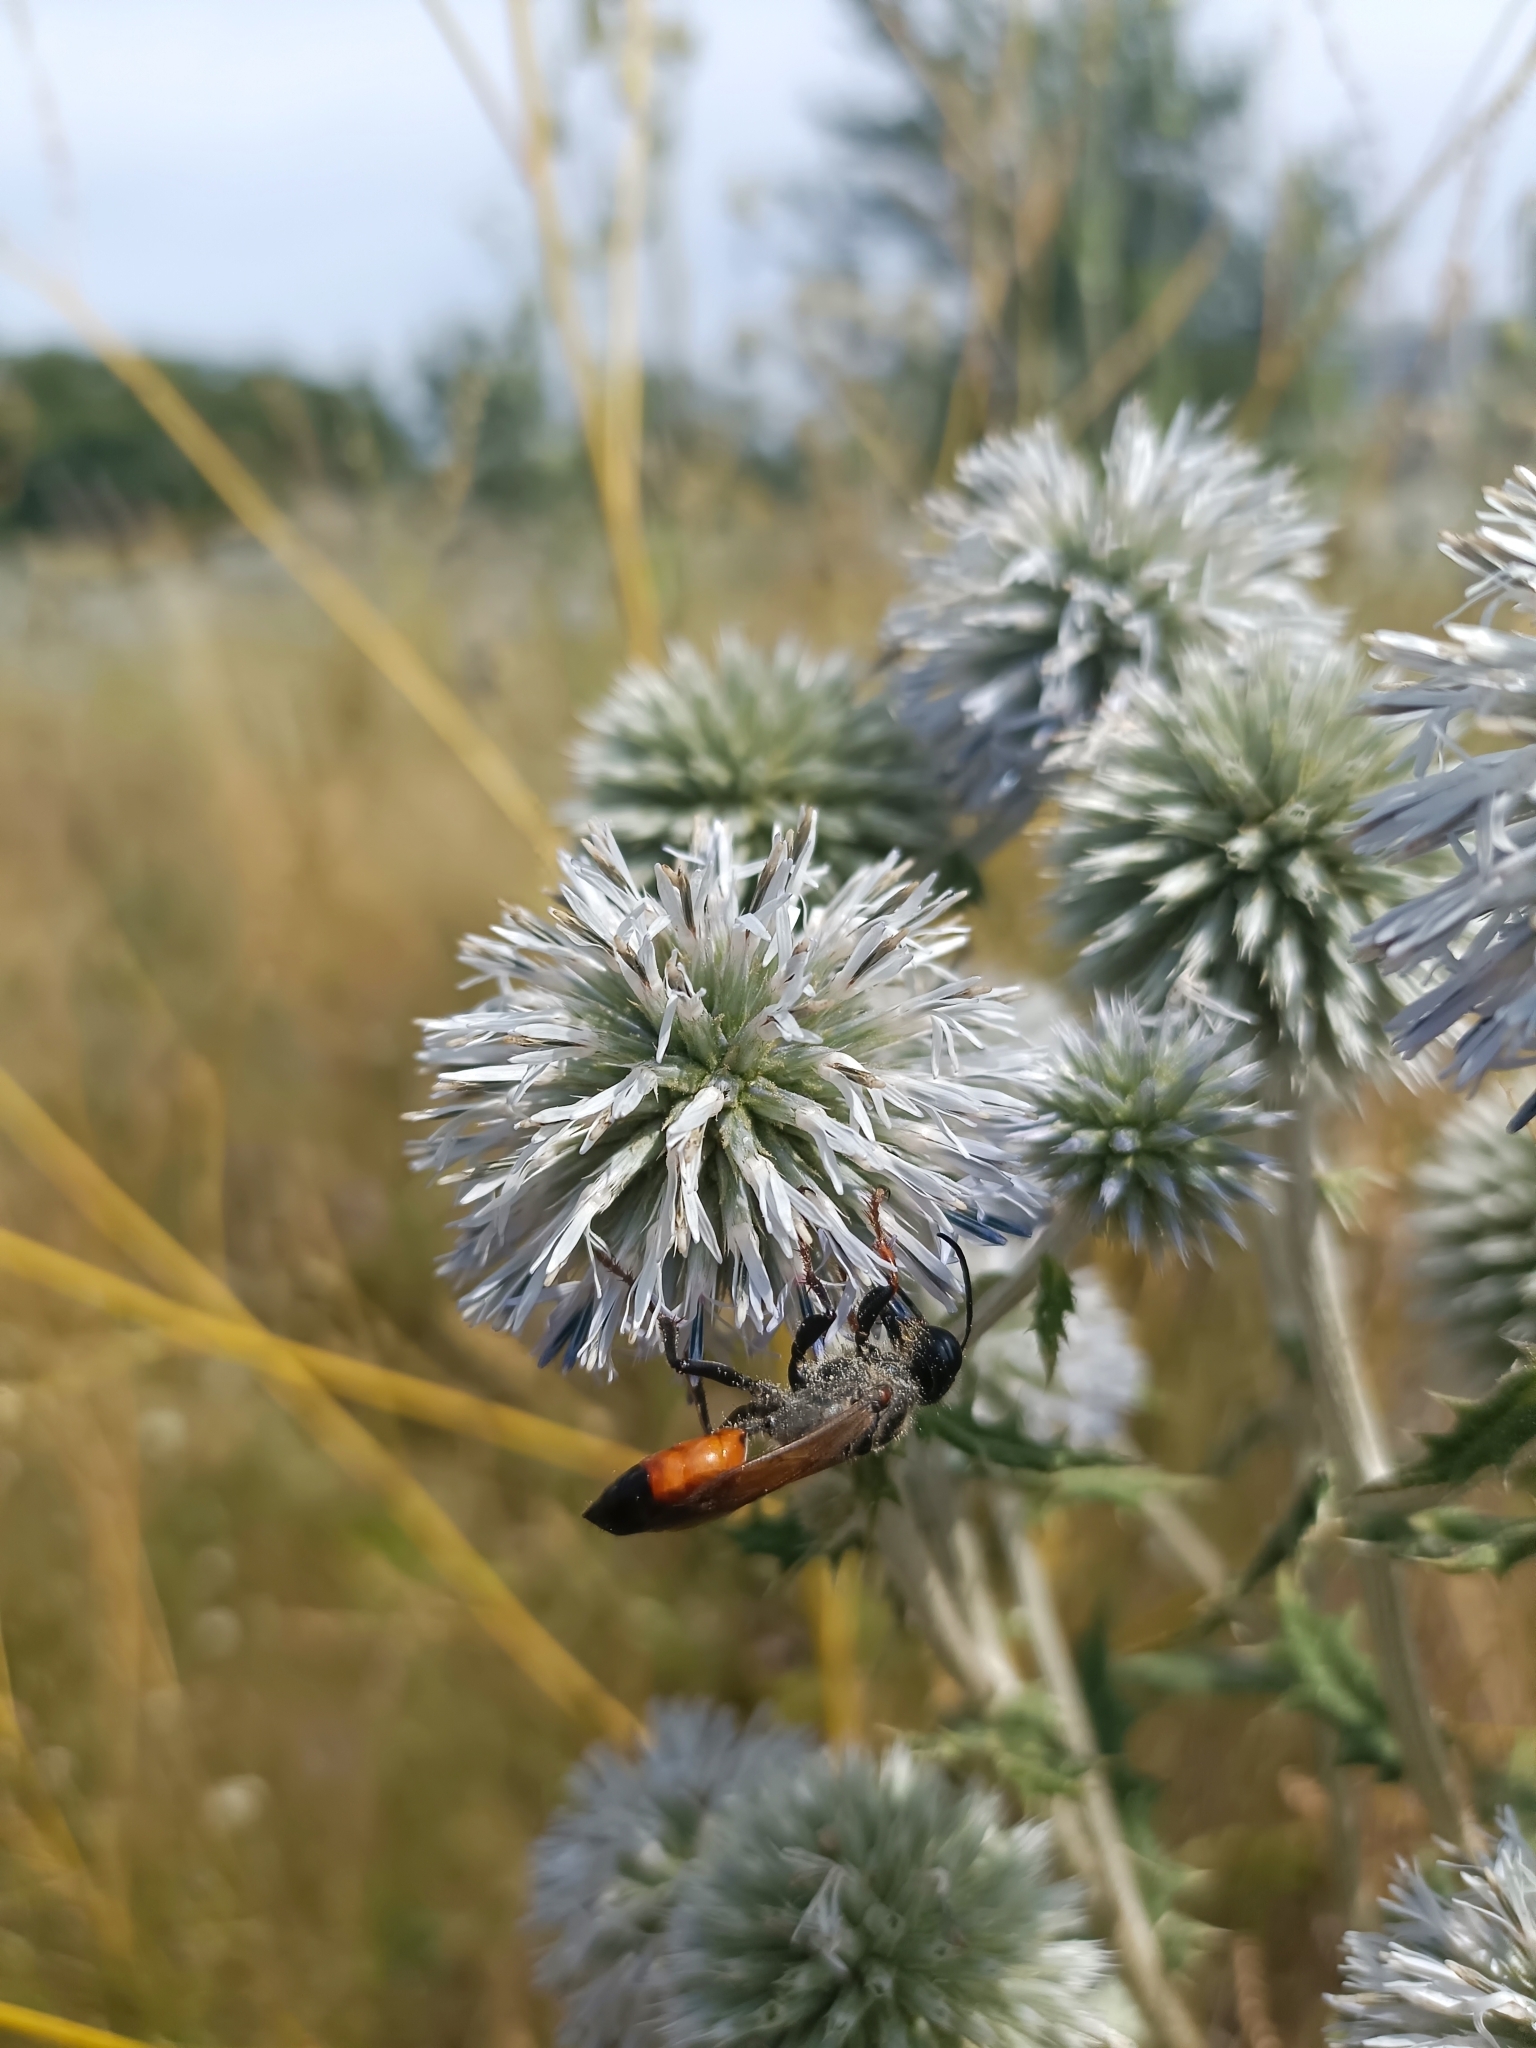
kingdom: Animalia
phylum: Arthropoda
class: Insecta
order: Hymenoptera
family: Sphecidae
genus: Sphex
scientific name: Sphex funerarius
